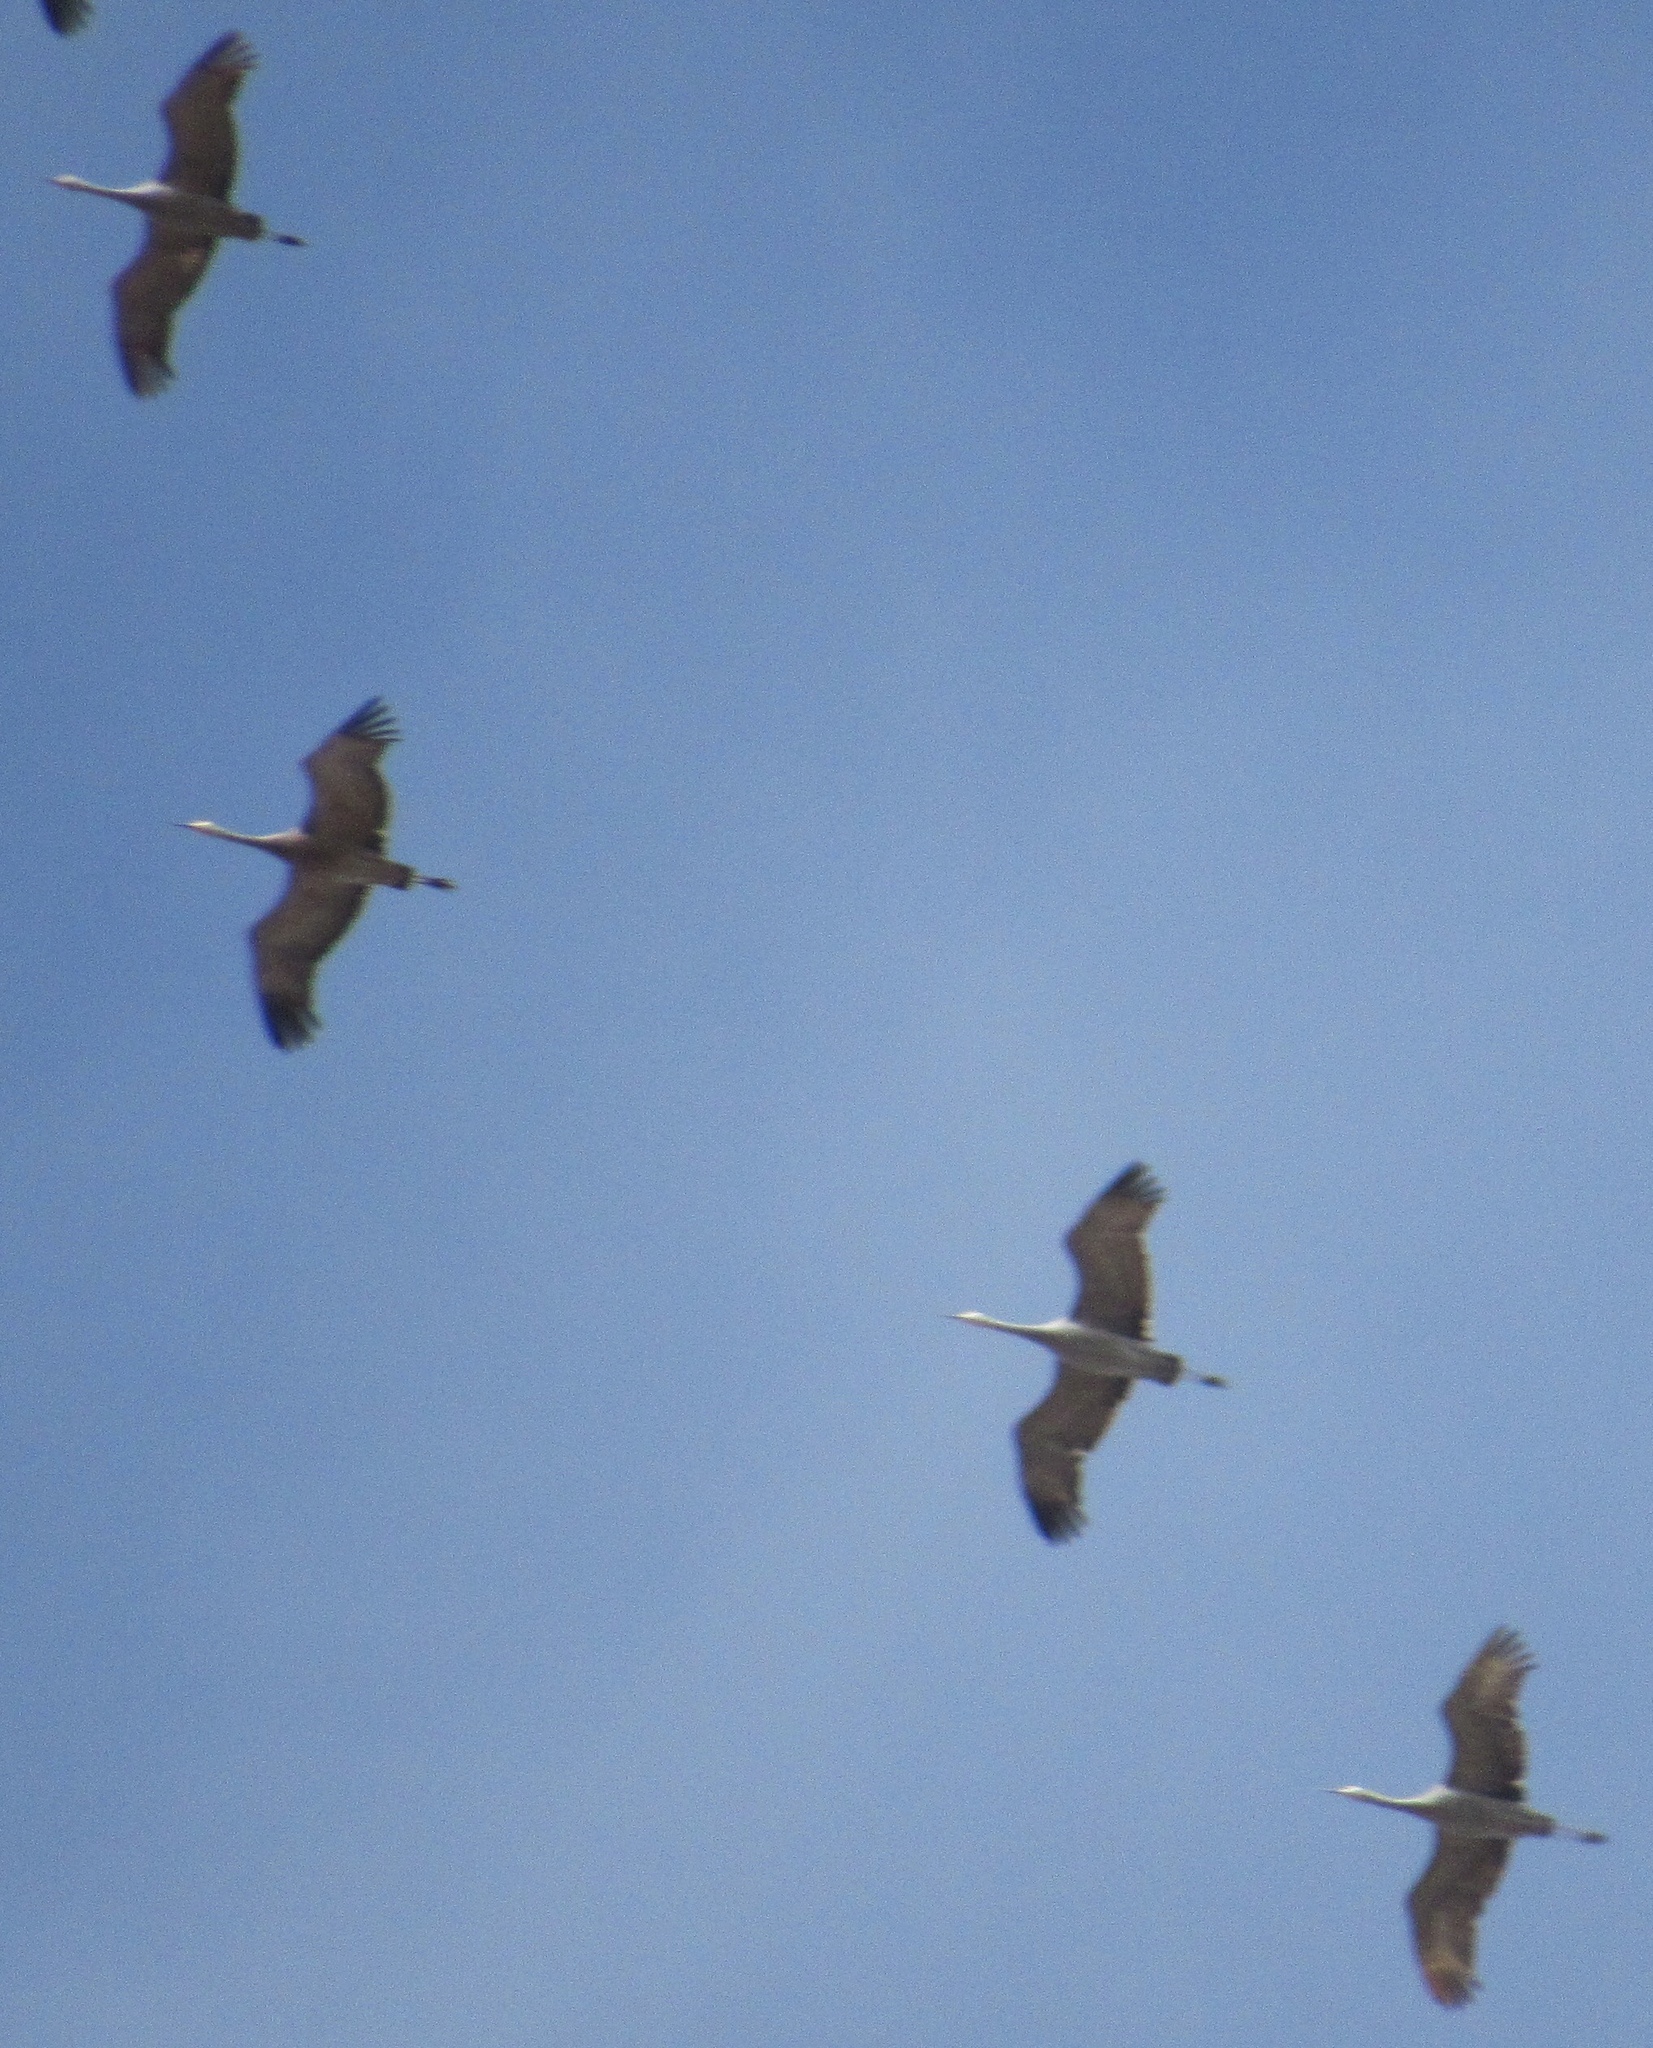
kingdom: Animalia
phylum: Chordata
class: Aves
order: Gruiformes
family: Gruidae
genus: Grus
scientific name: Grus canadensis
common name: Sandhill crane
